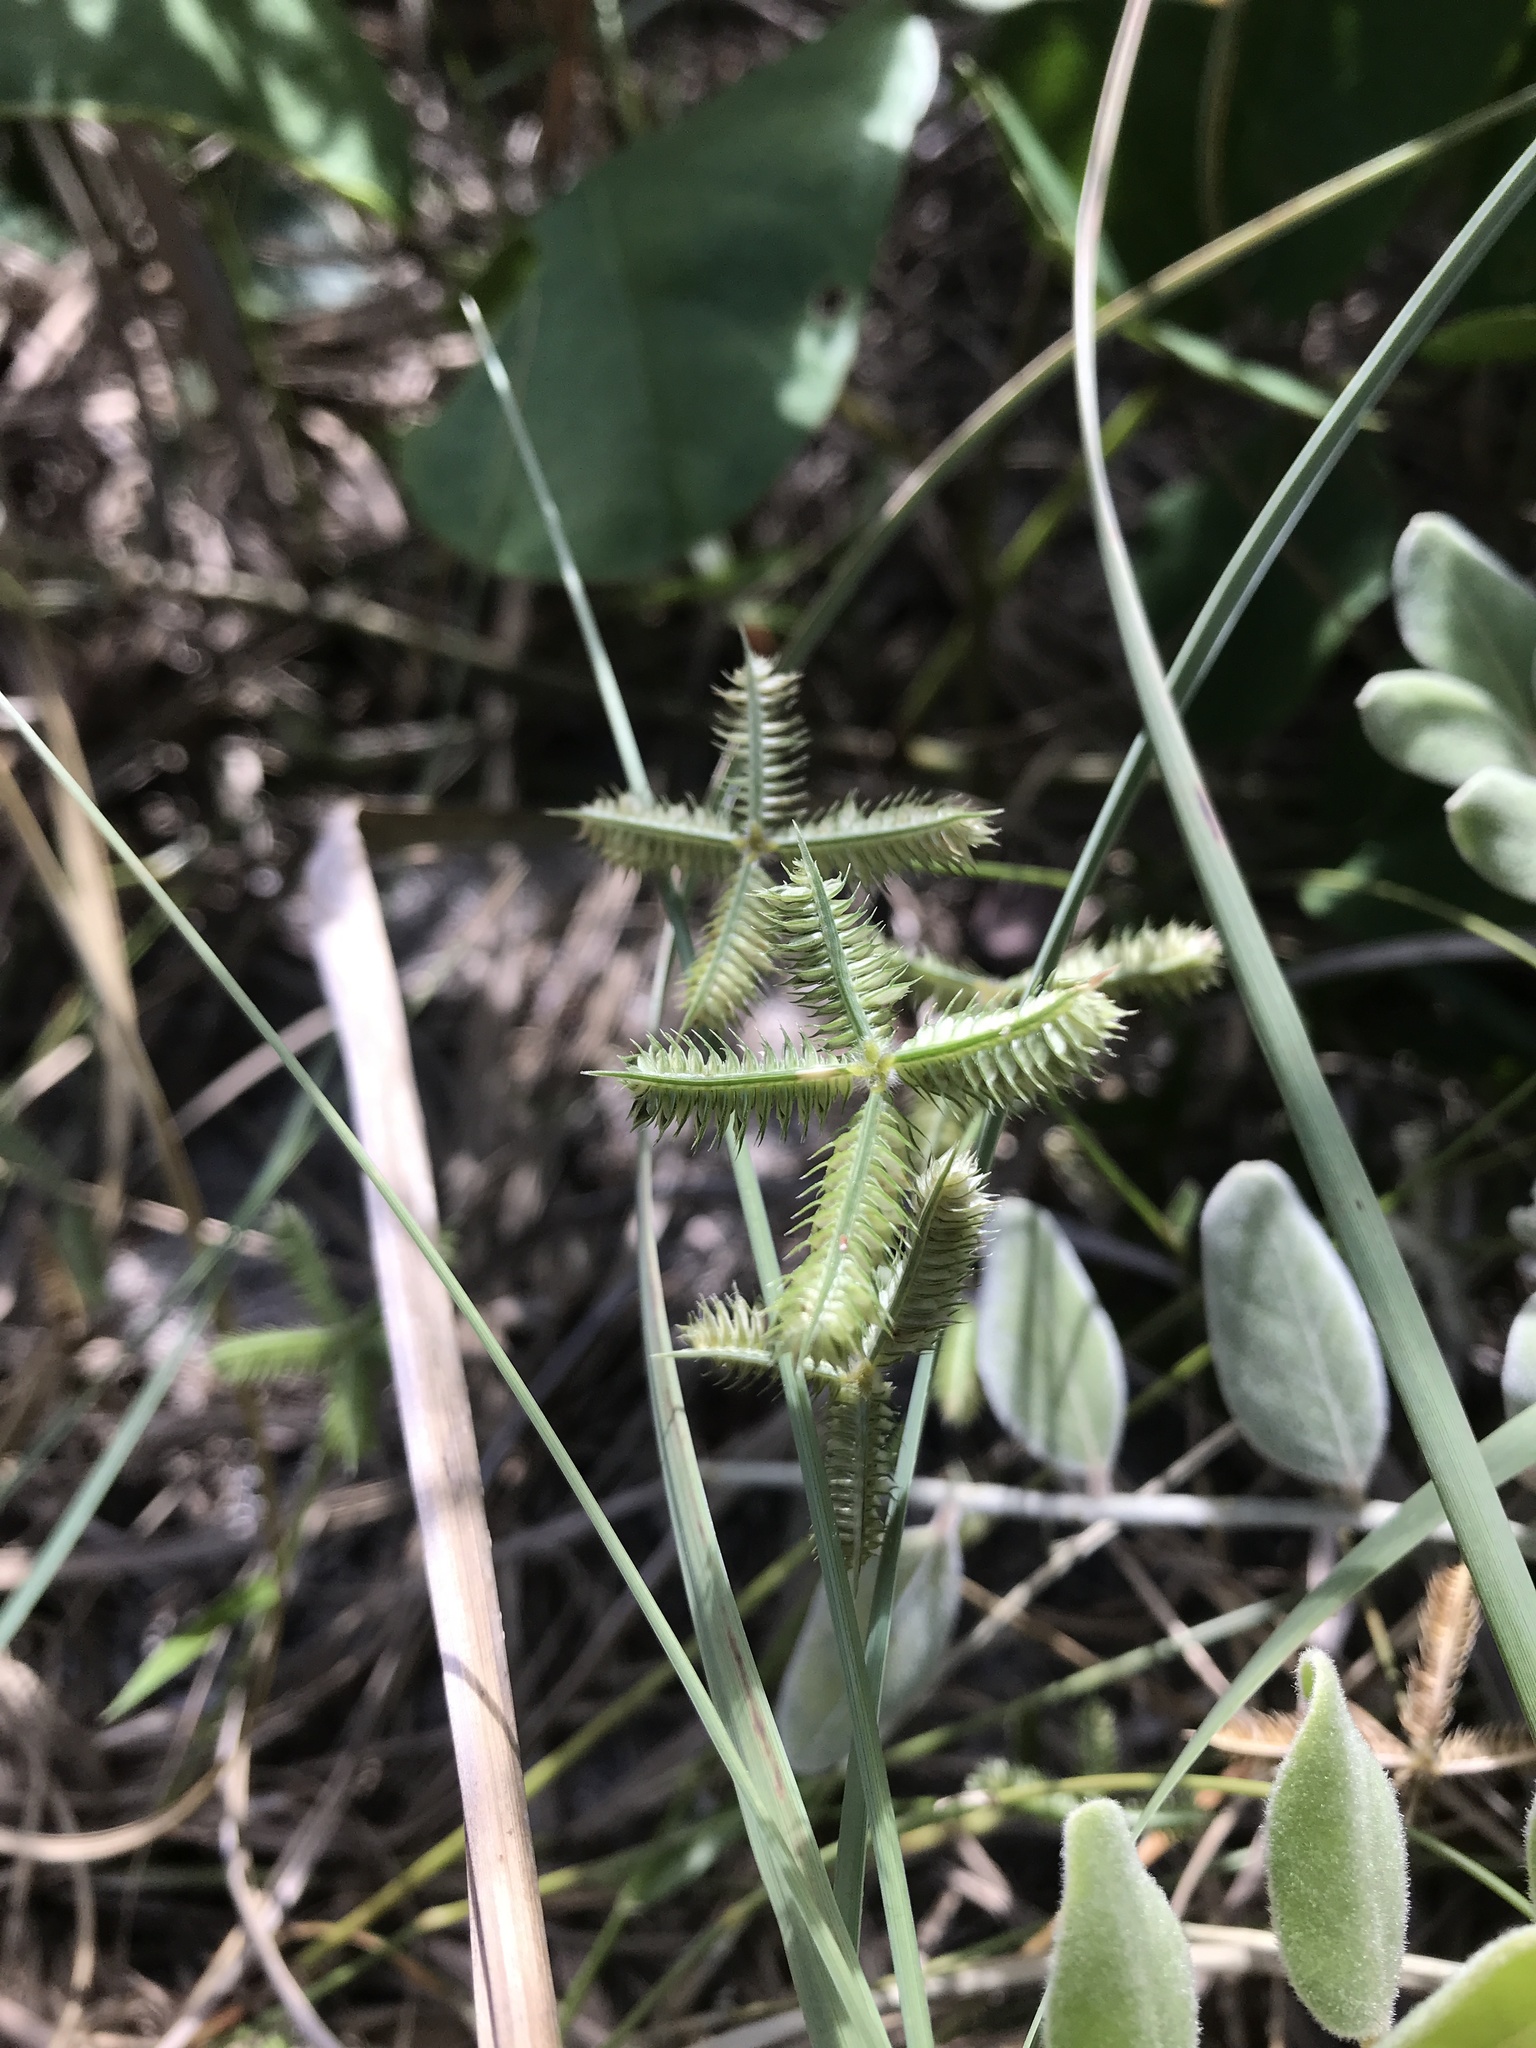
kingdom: Plantae
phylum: Tracheophyta
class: Liliopsida
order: Poales
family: Poaceae
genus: Dactyloctenium
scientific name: Dactyloctenium aegyptium
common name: Egyptian grass
